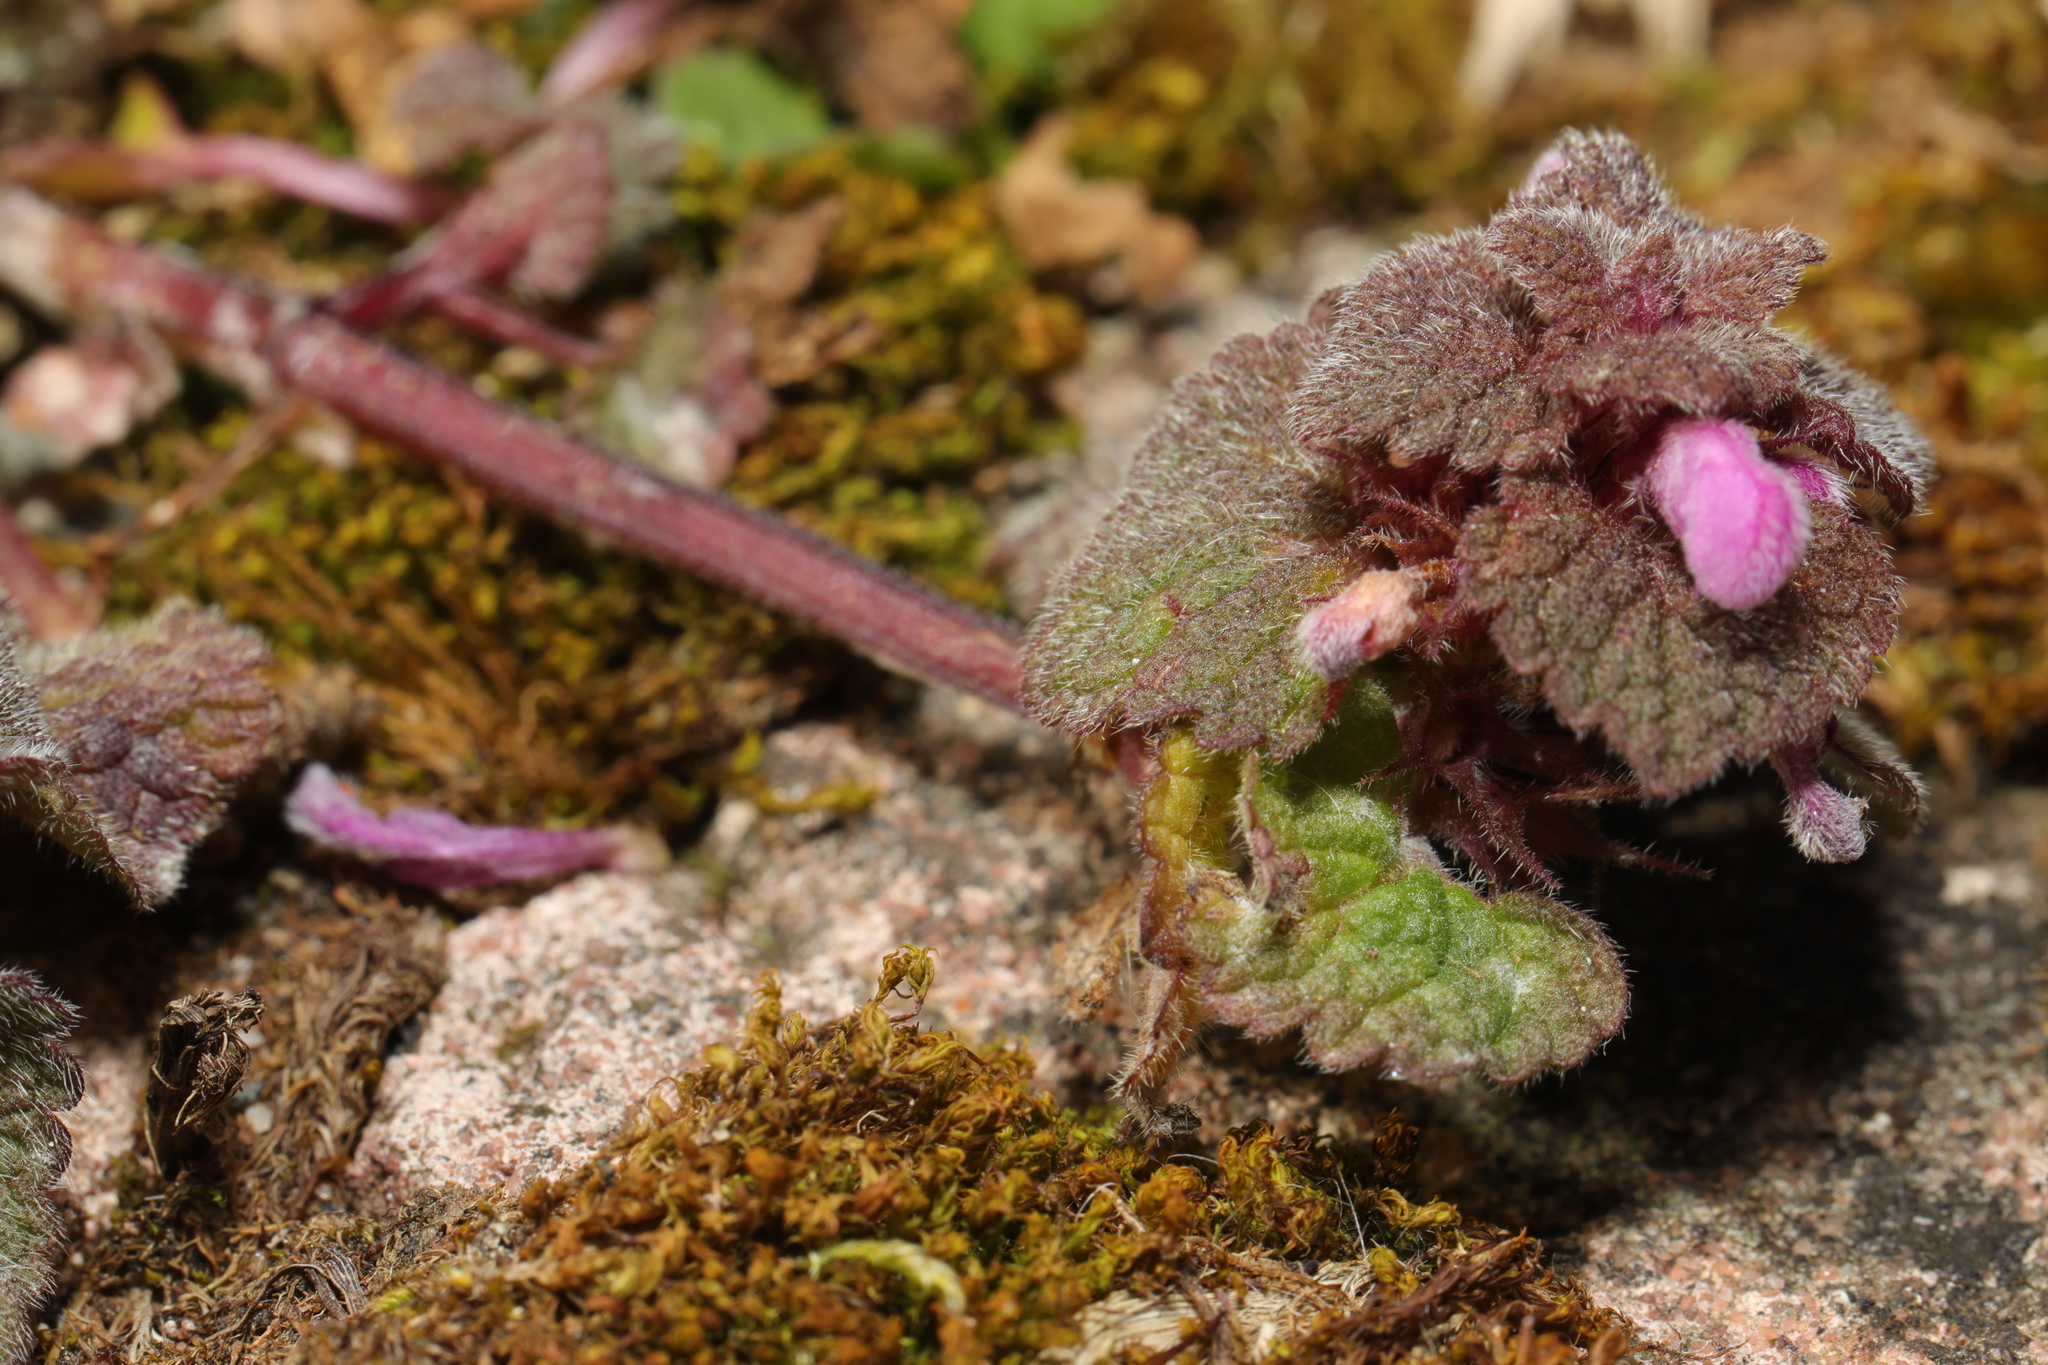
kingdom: Plantae
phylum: Tracheophyta
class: Magnoliopsida
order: Lamiales
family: Lamiaceae
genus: Lamium
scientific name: Lamium purpureum
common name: Red dead-nettle
